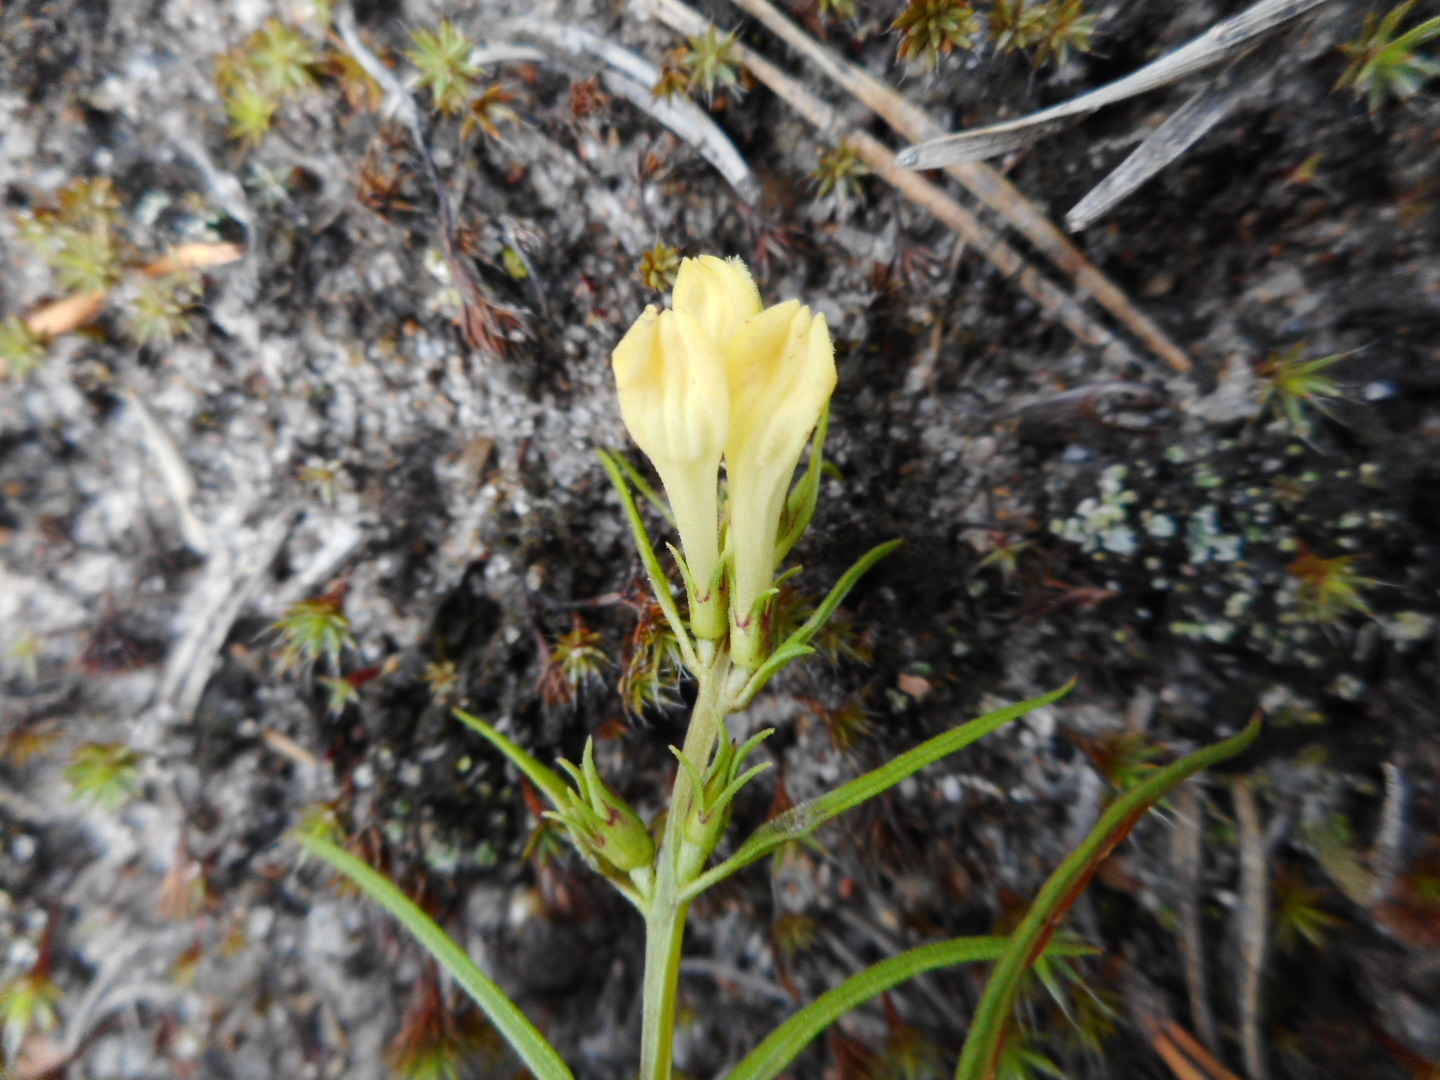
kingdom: Plantae
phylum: Tracheophyta
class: Magnoliopsida
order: Lamiales
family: Orobanchaceae
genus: Melampyrum
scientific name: Melampyrum pratense
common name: Common cow-wheat
